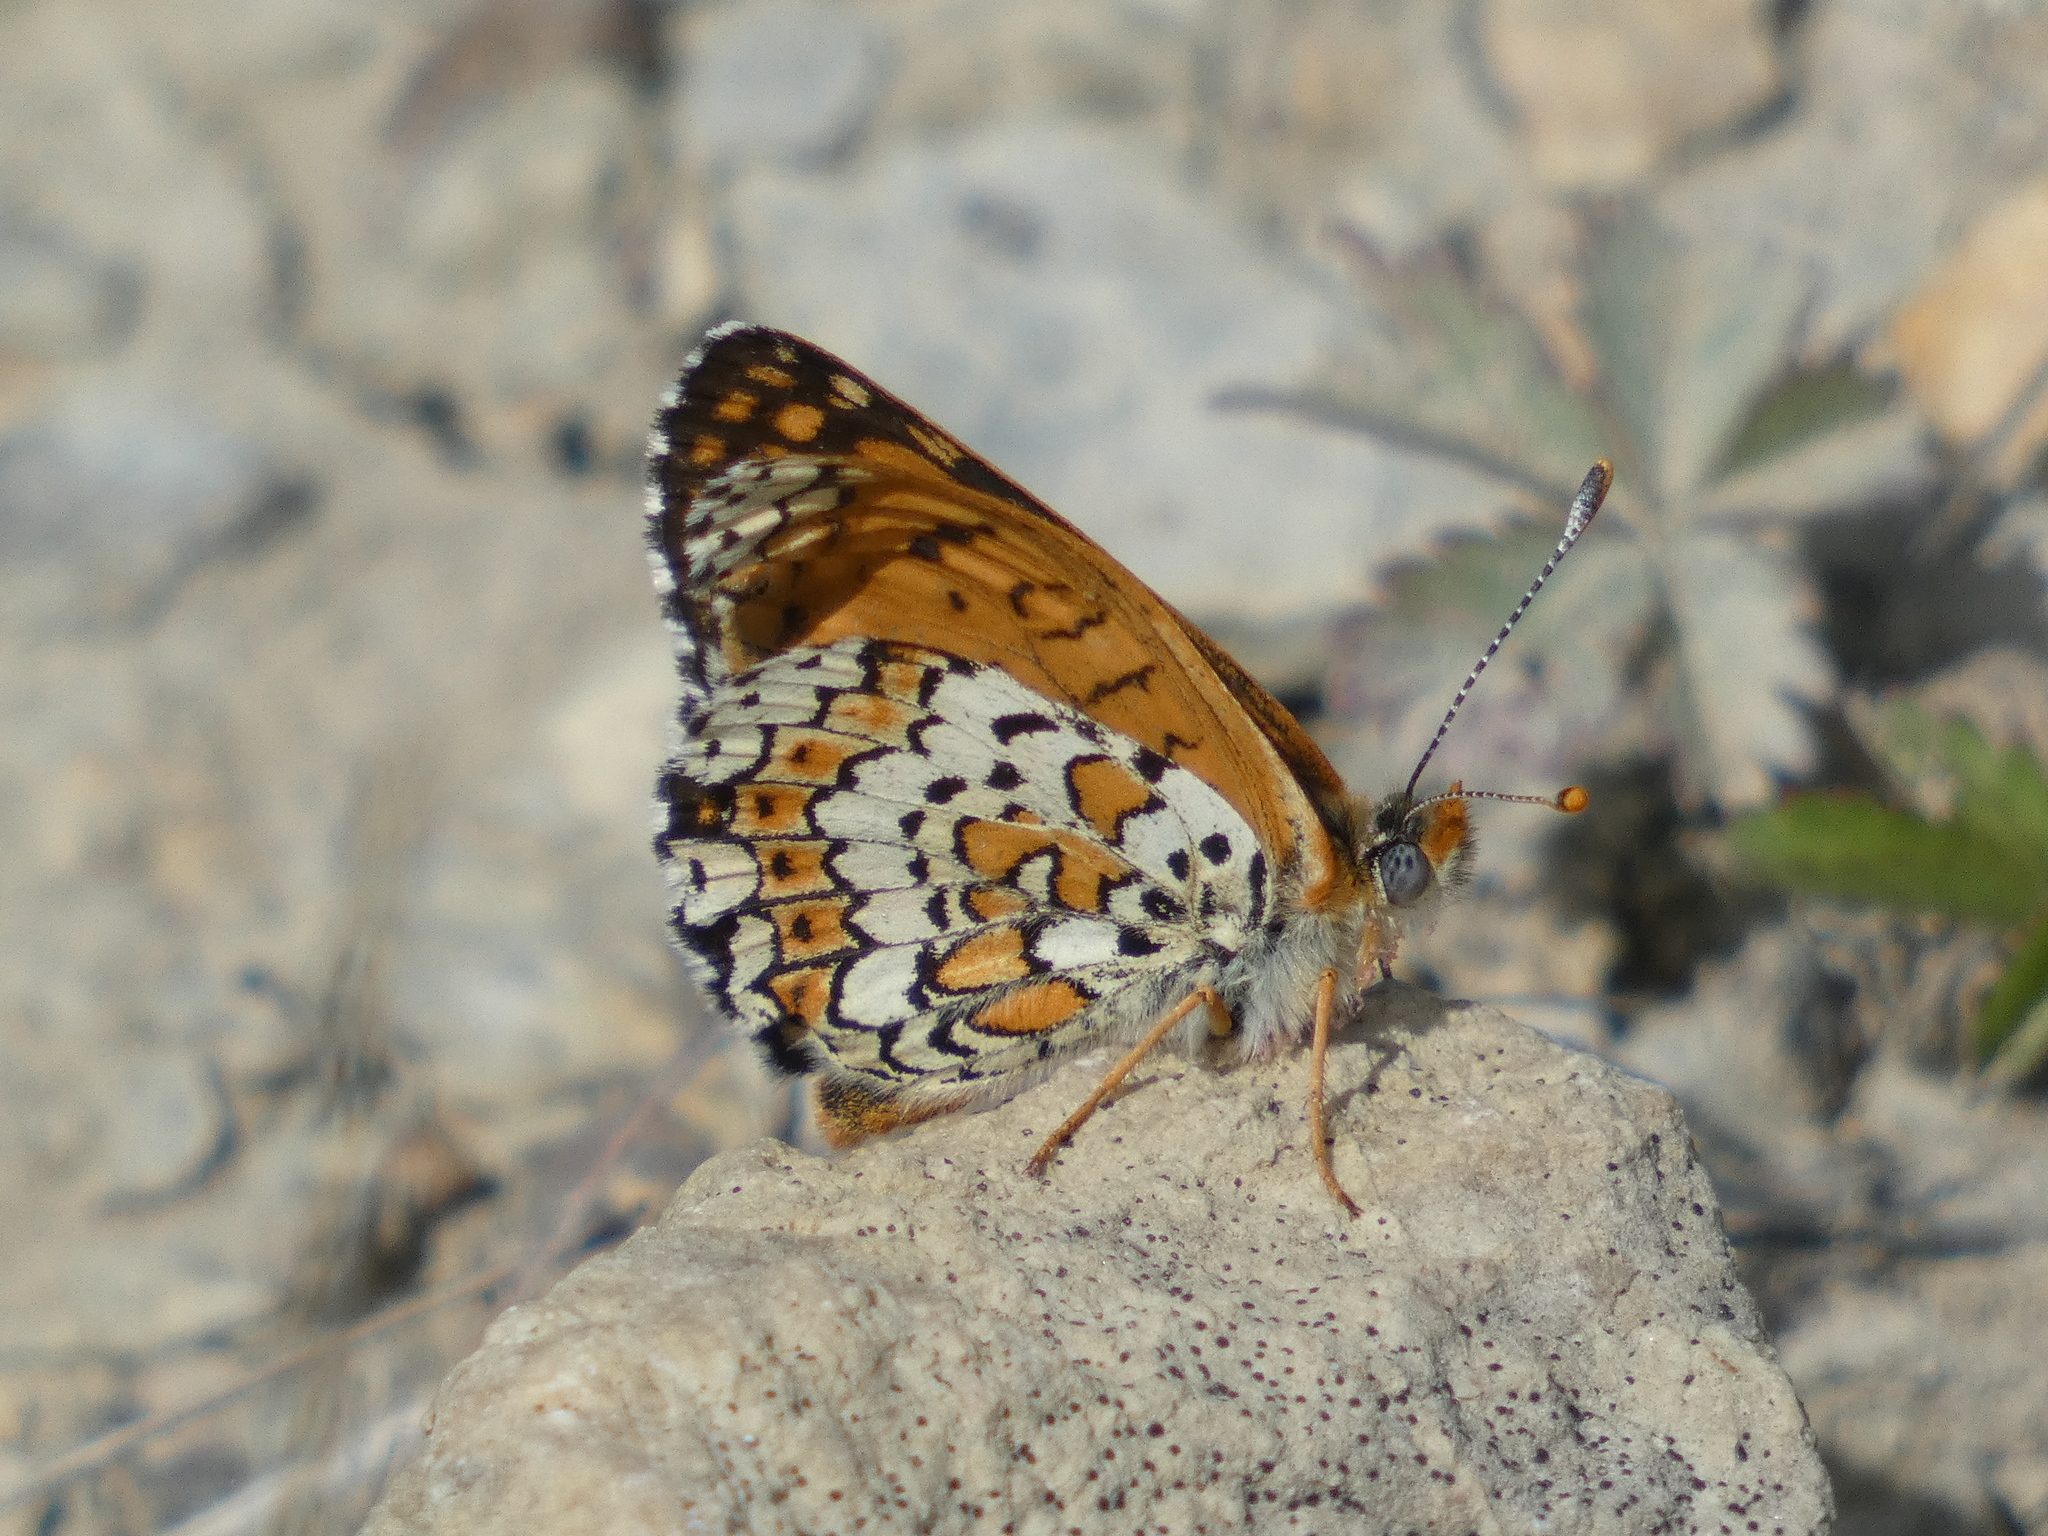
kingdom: Animalia
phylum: Arthropoda
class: Insecta
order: Lepidoptera
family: Nymphalidae
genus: Melitaea
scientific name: Melitaea cinxia
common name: Glanville fritillary
